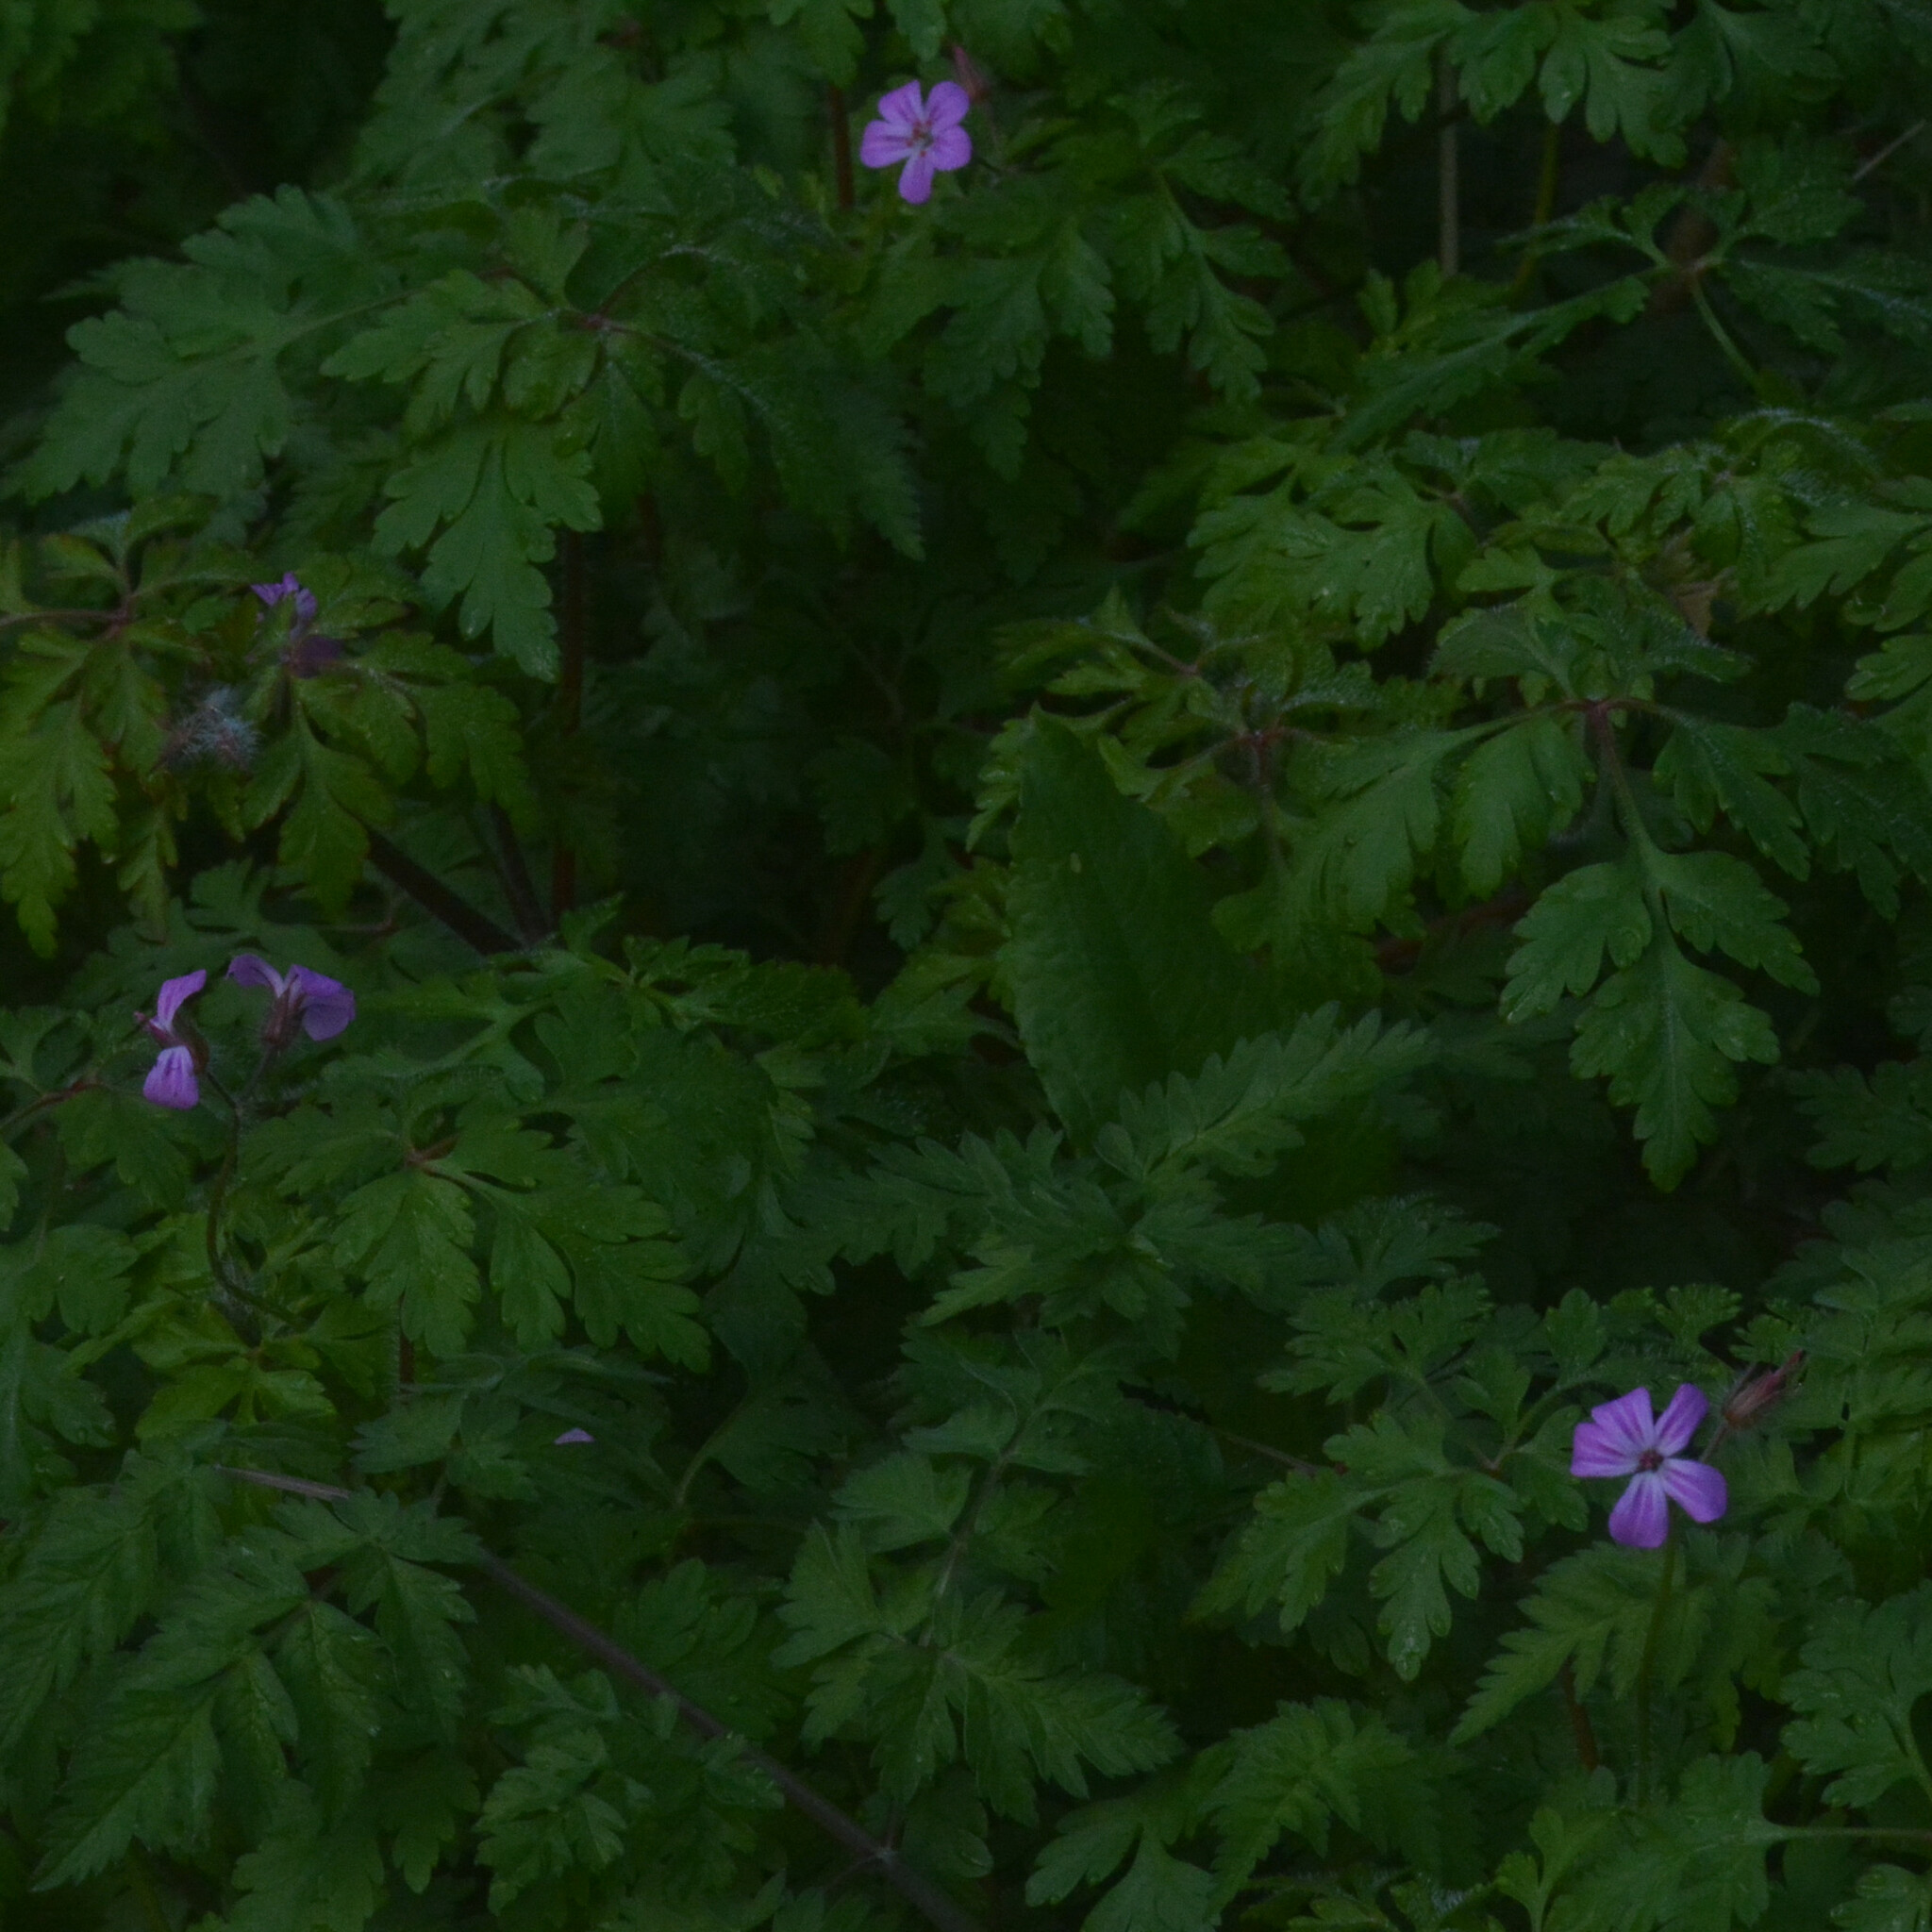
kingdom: Plantae
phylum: Tracheophyta
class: Magnoliopsida
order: Geraniales
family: Geraniaceae
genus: Geranium
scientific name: Geranium robertianum
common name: Herb-robert
